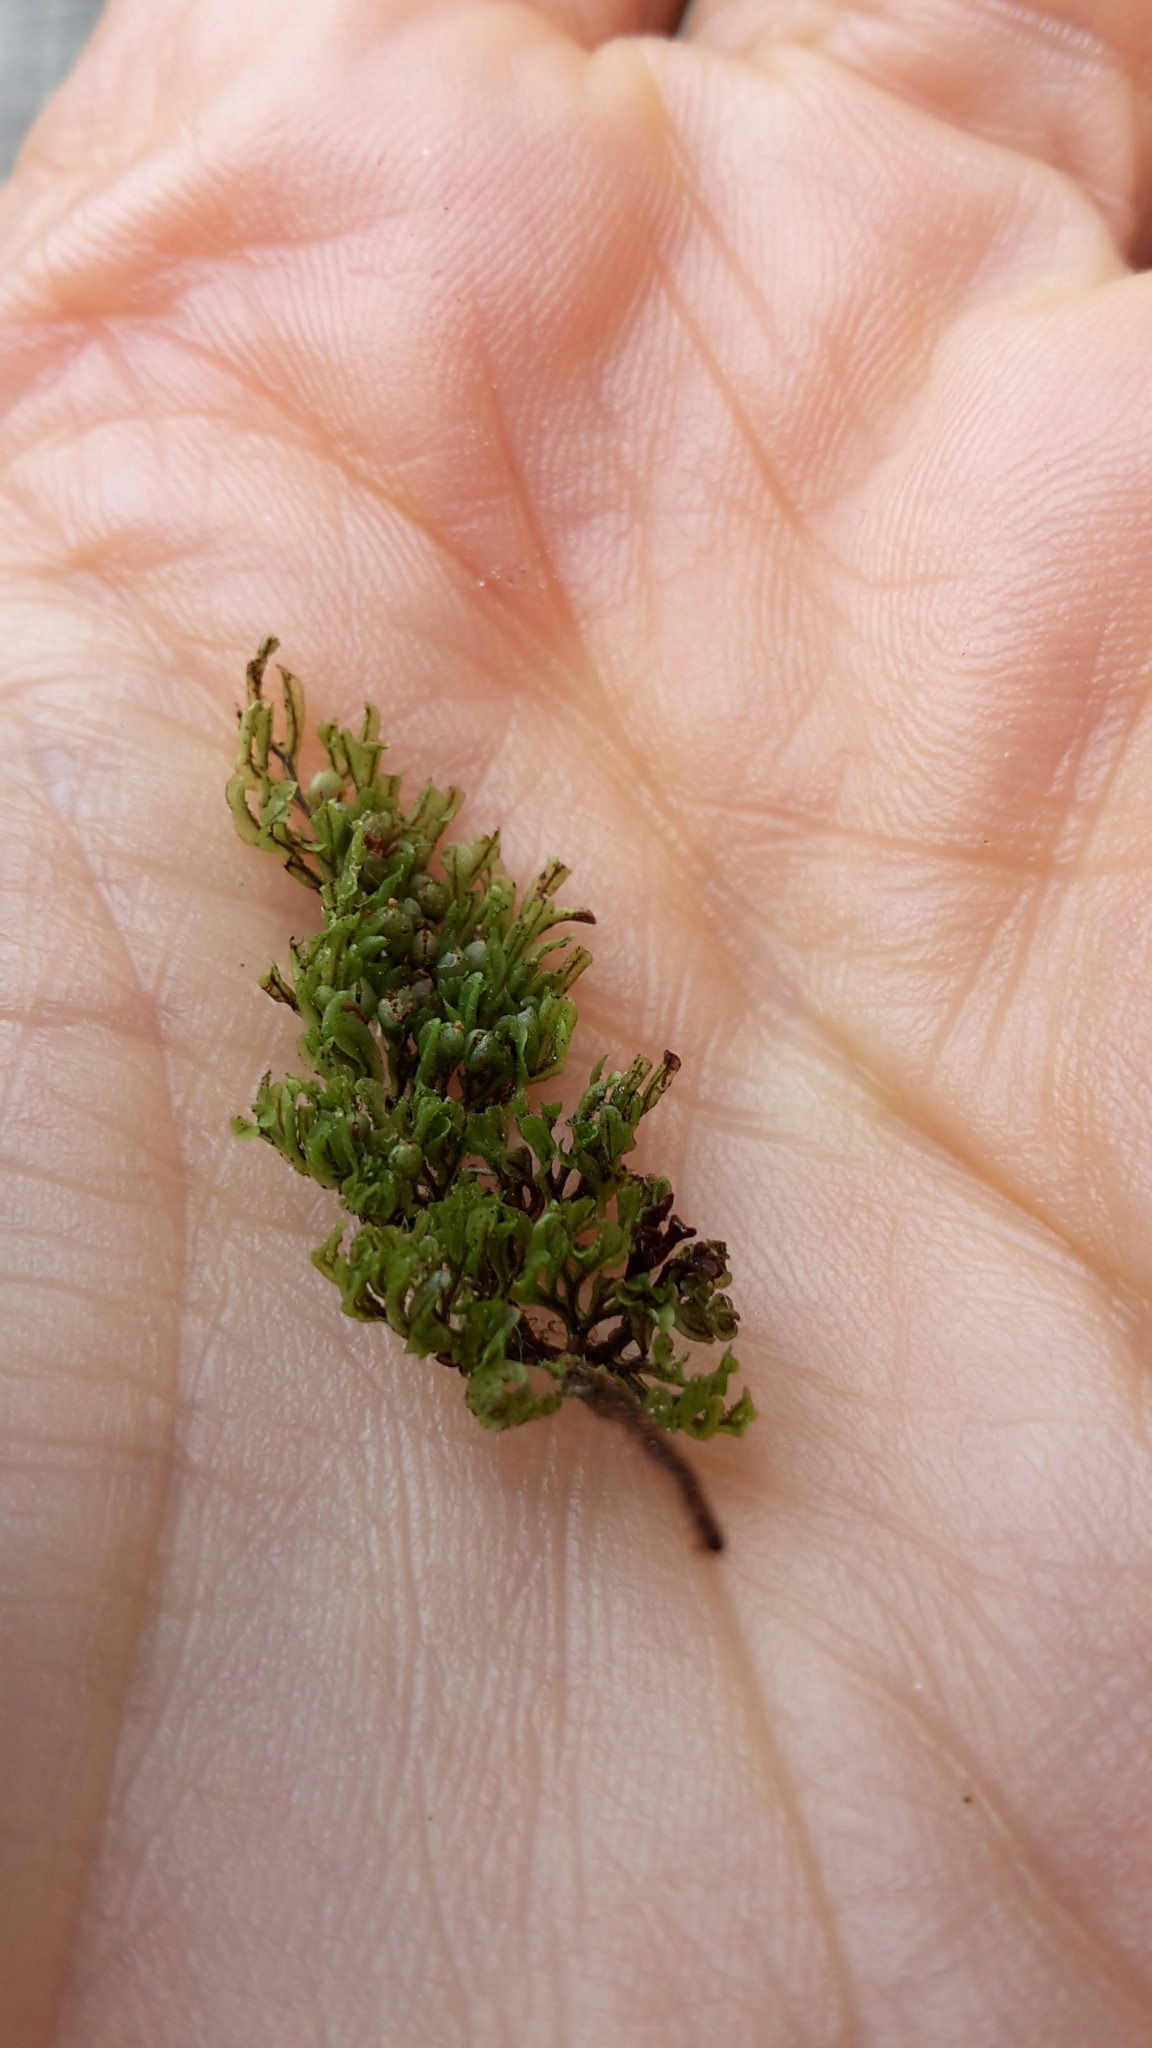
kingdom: Plantae
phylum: Tracheophyta
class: Polypodiopsida
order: Hymenophyllales
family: Hymenophyllaceae
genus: Hymenophyllum
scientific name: Hymenophyllum villosum
